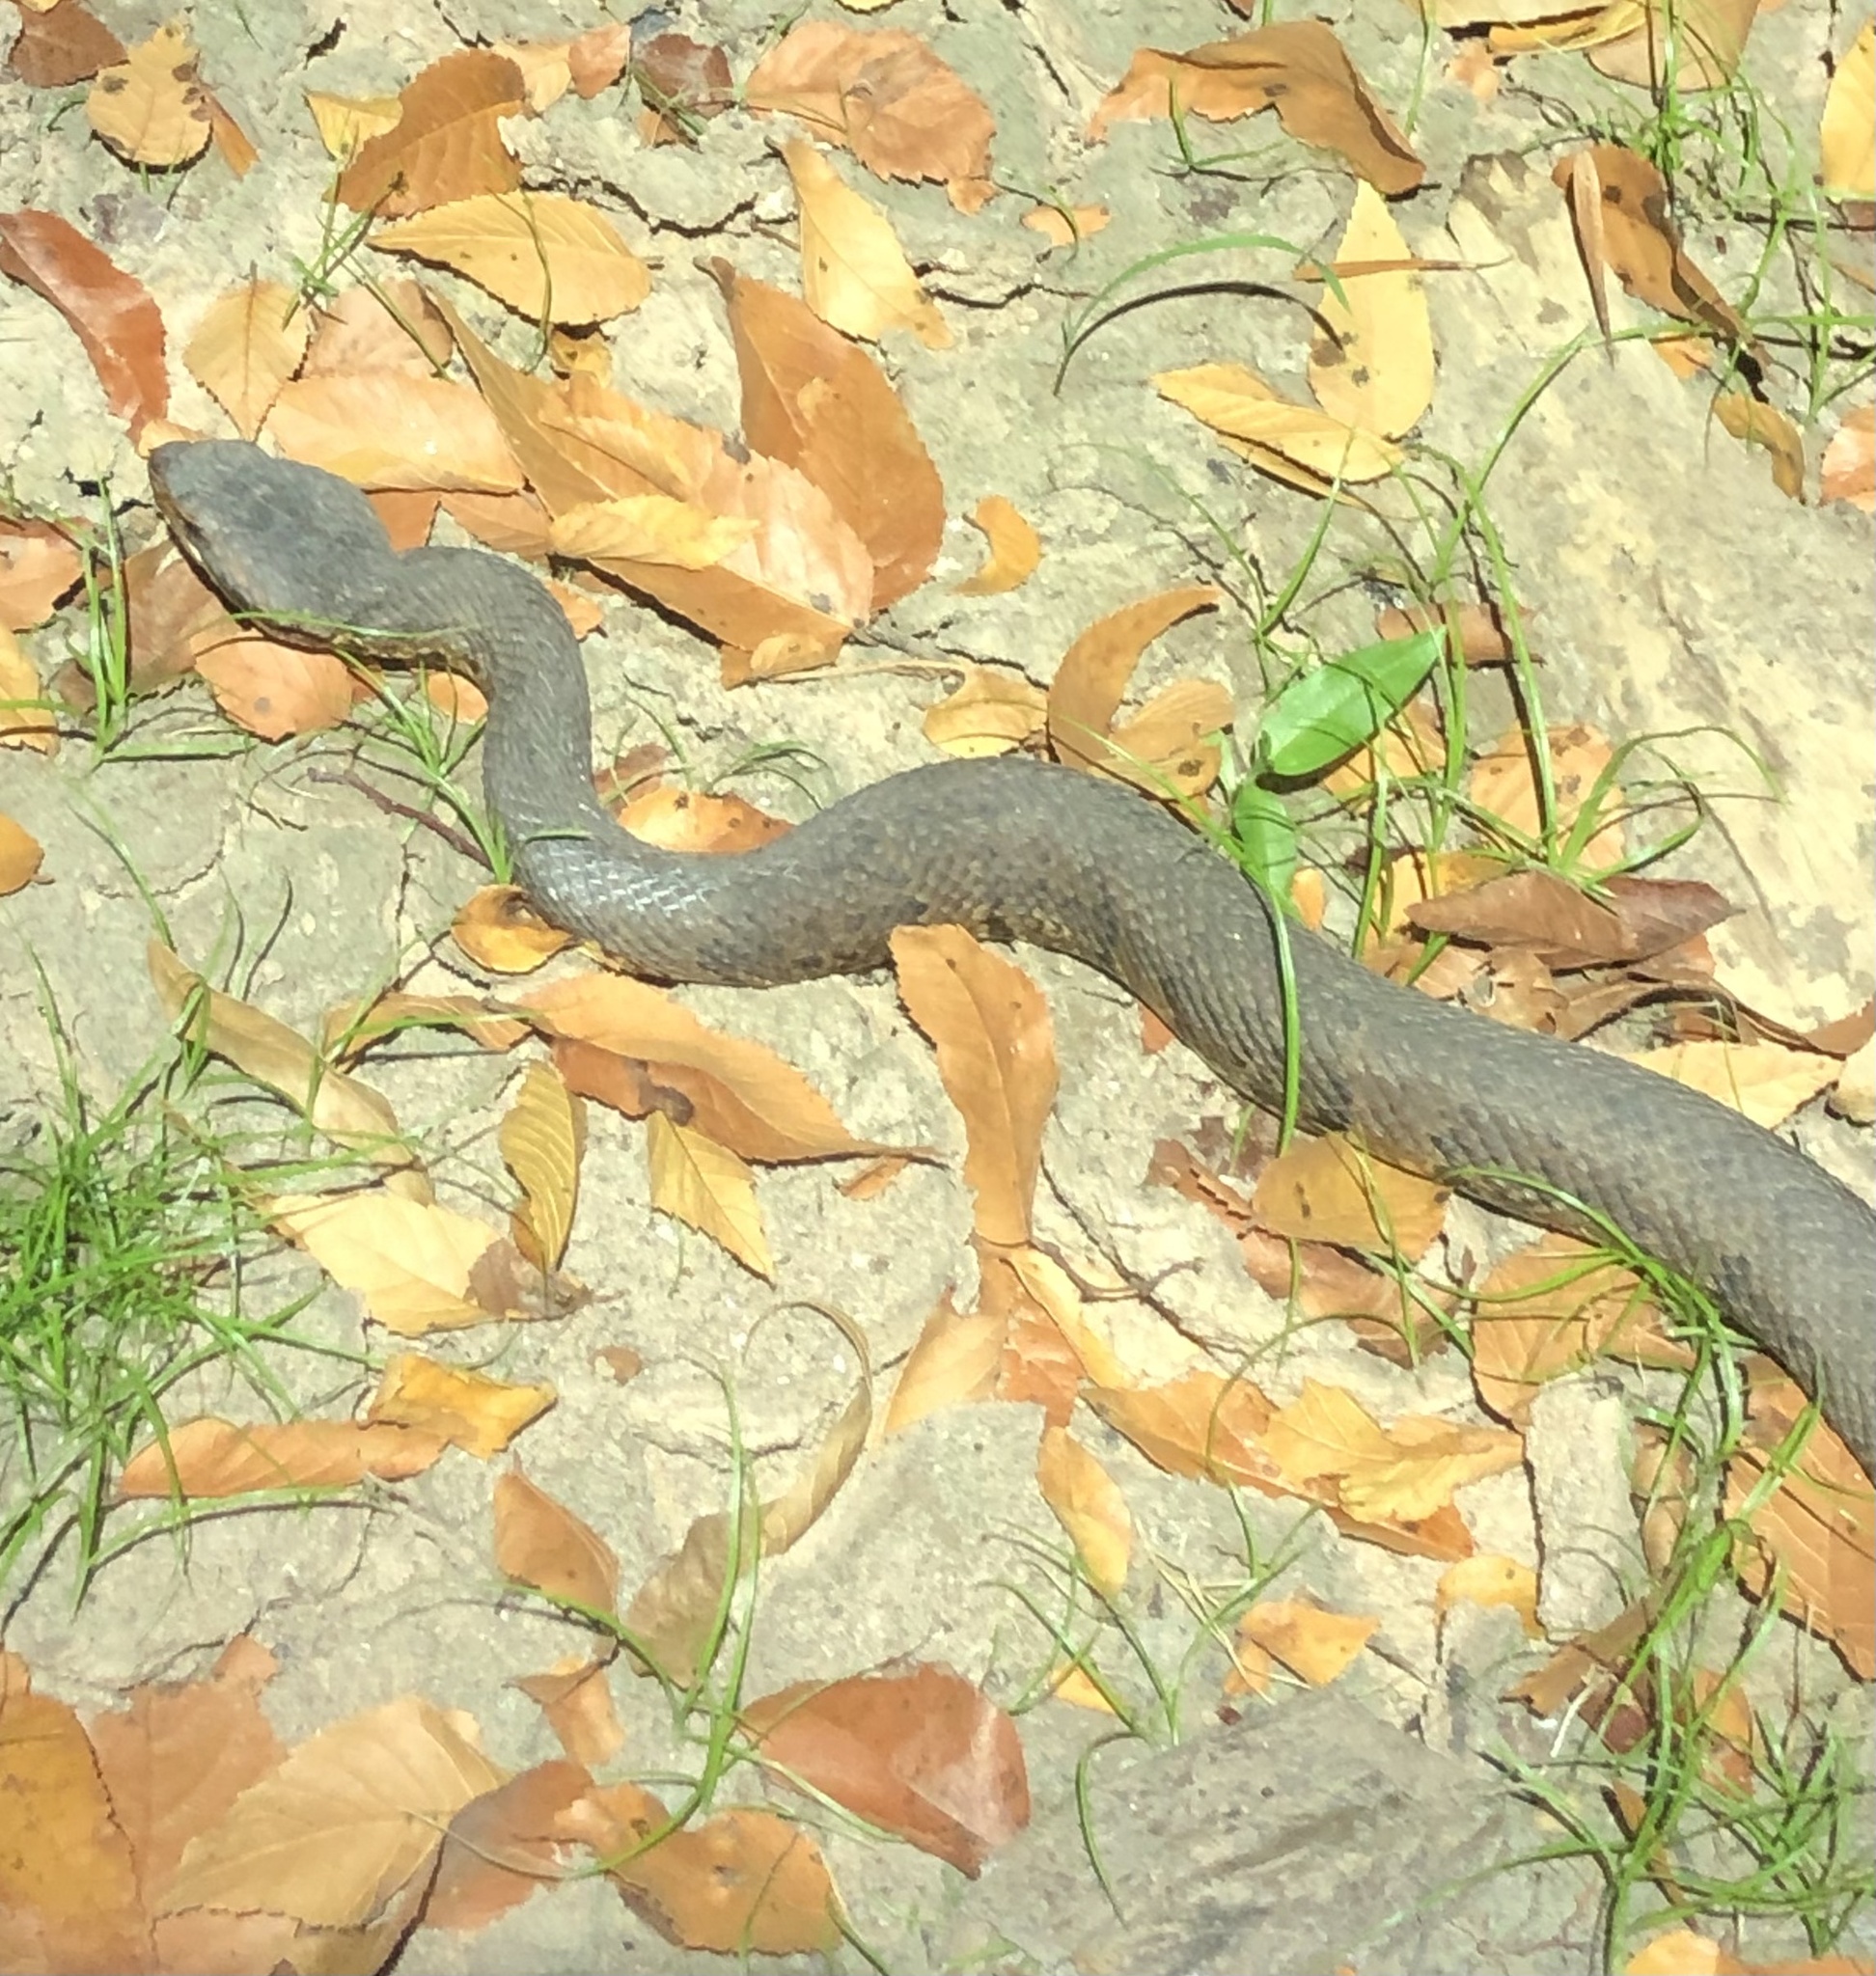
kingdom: Animalia
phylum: Chordata
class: Squamata
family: Viperidae
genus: Agkistrodon
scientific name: Agkistrodon piscivorus
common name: Cottonmouth
